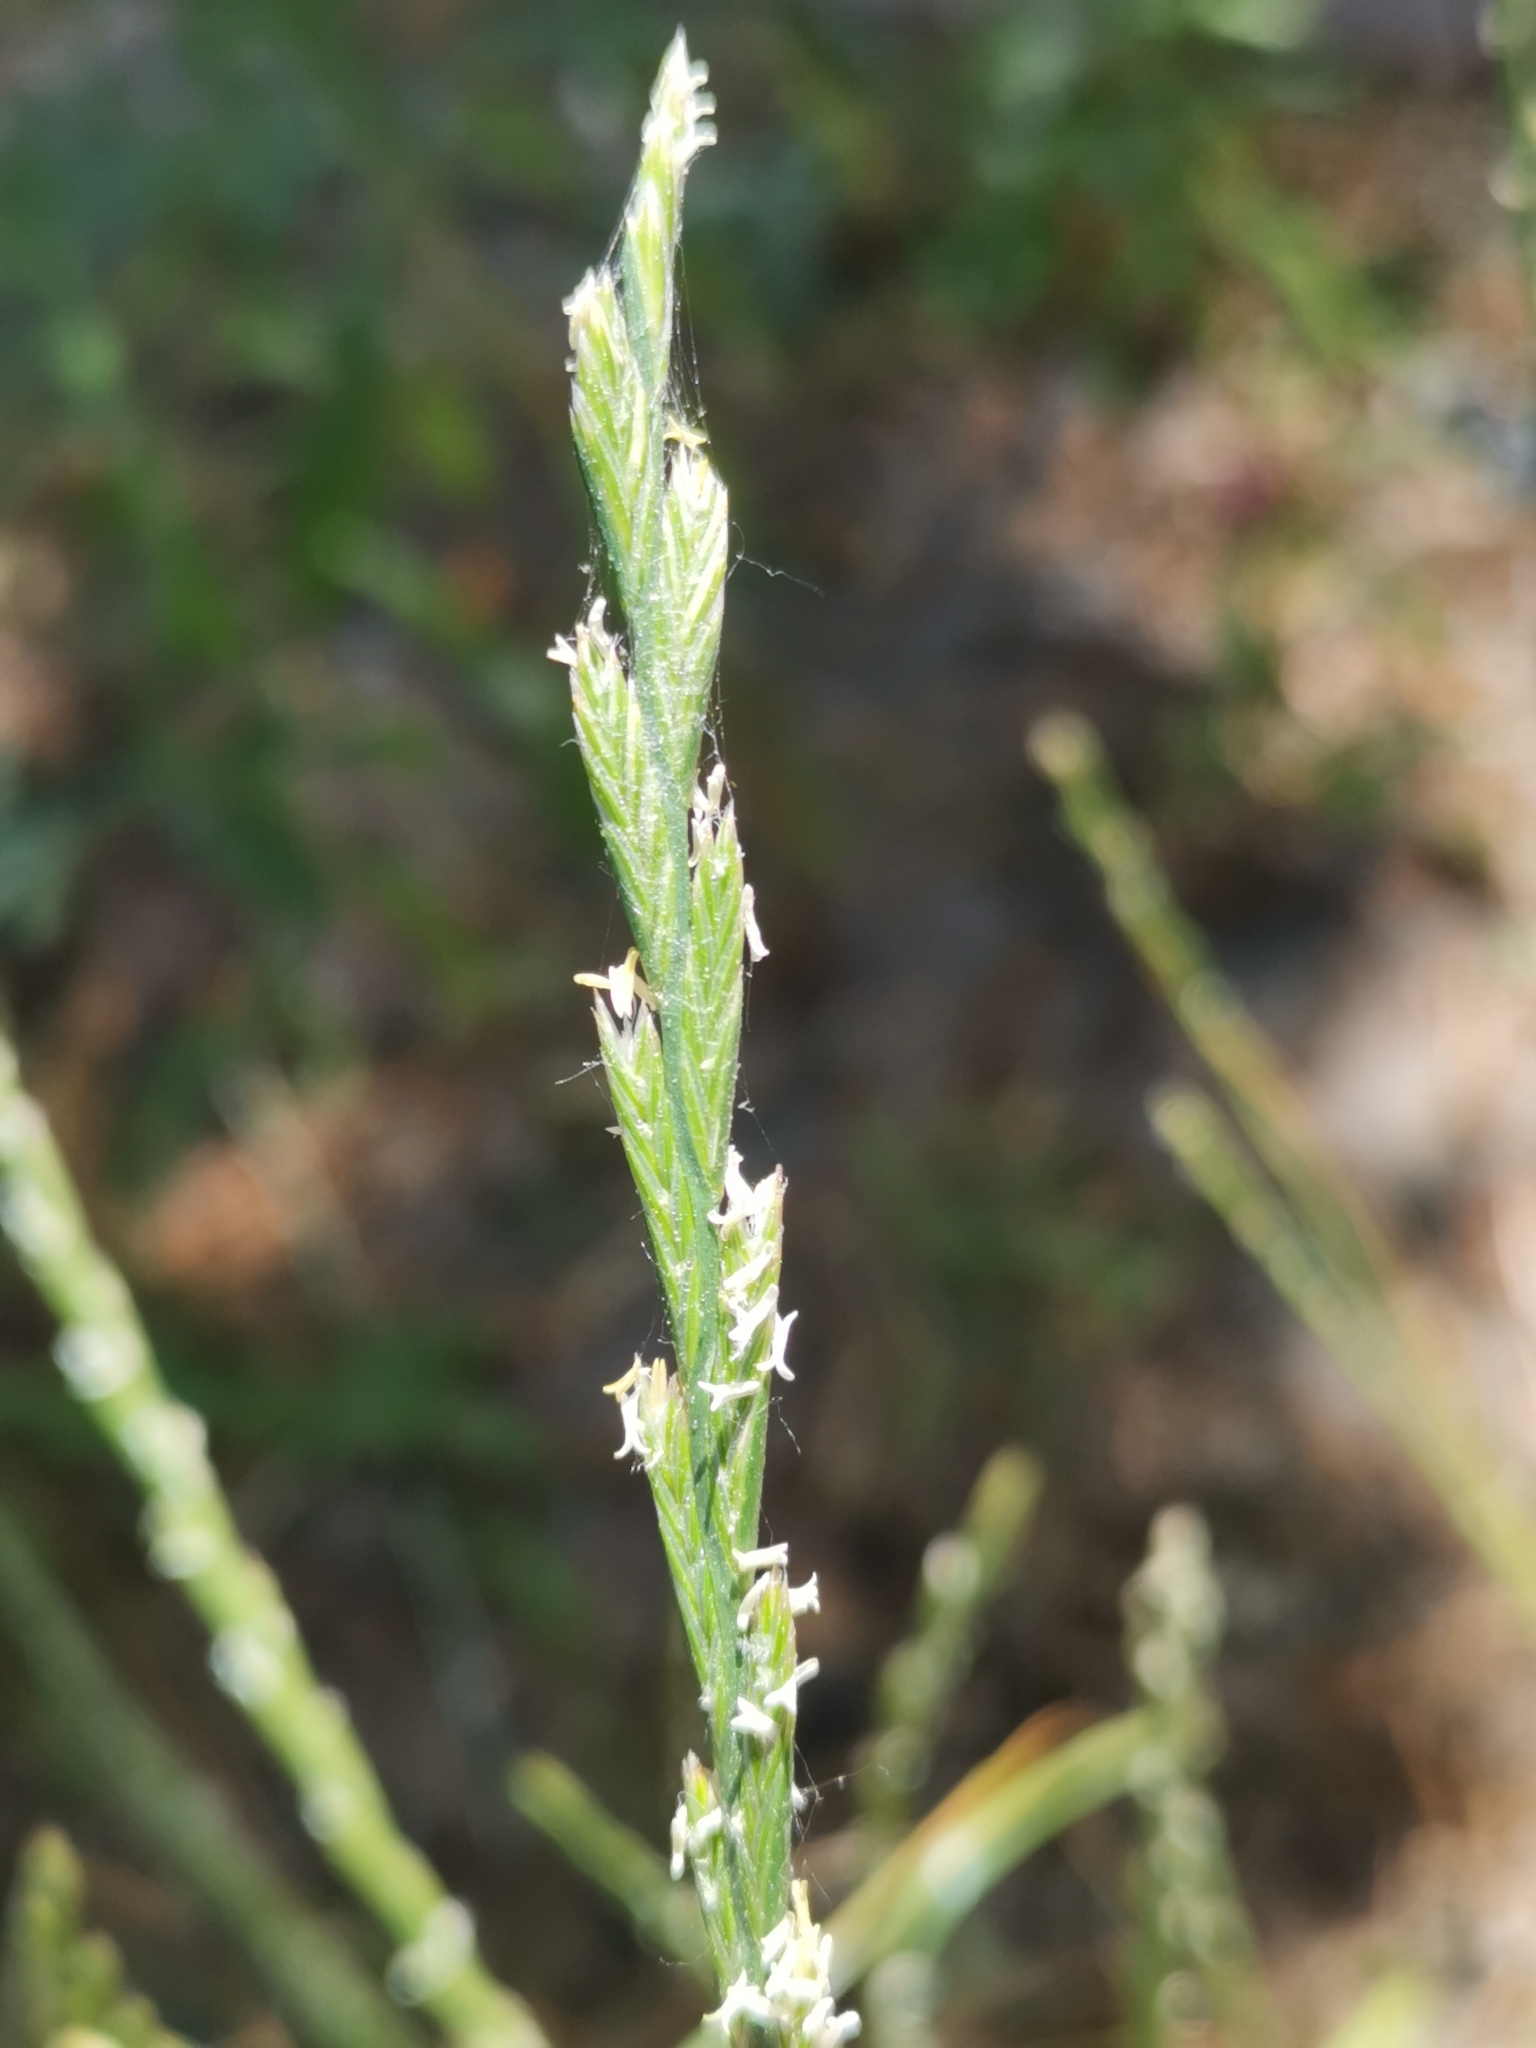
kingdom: Plantae
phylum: Tracheophyta
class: Liliopsida
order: Poales
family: Poaceae
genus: Lolium
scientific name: Lolium perenne
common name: Perennial ryegrass
